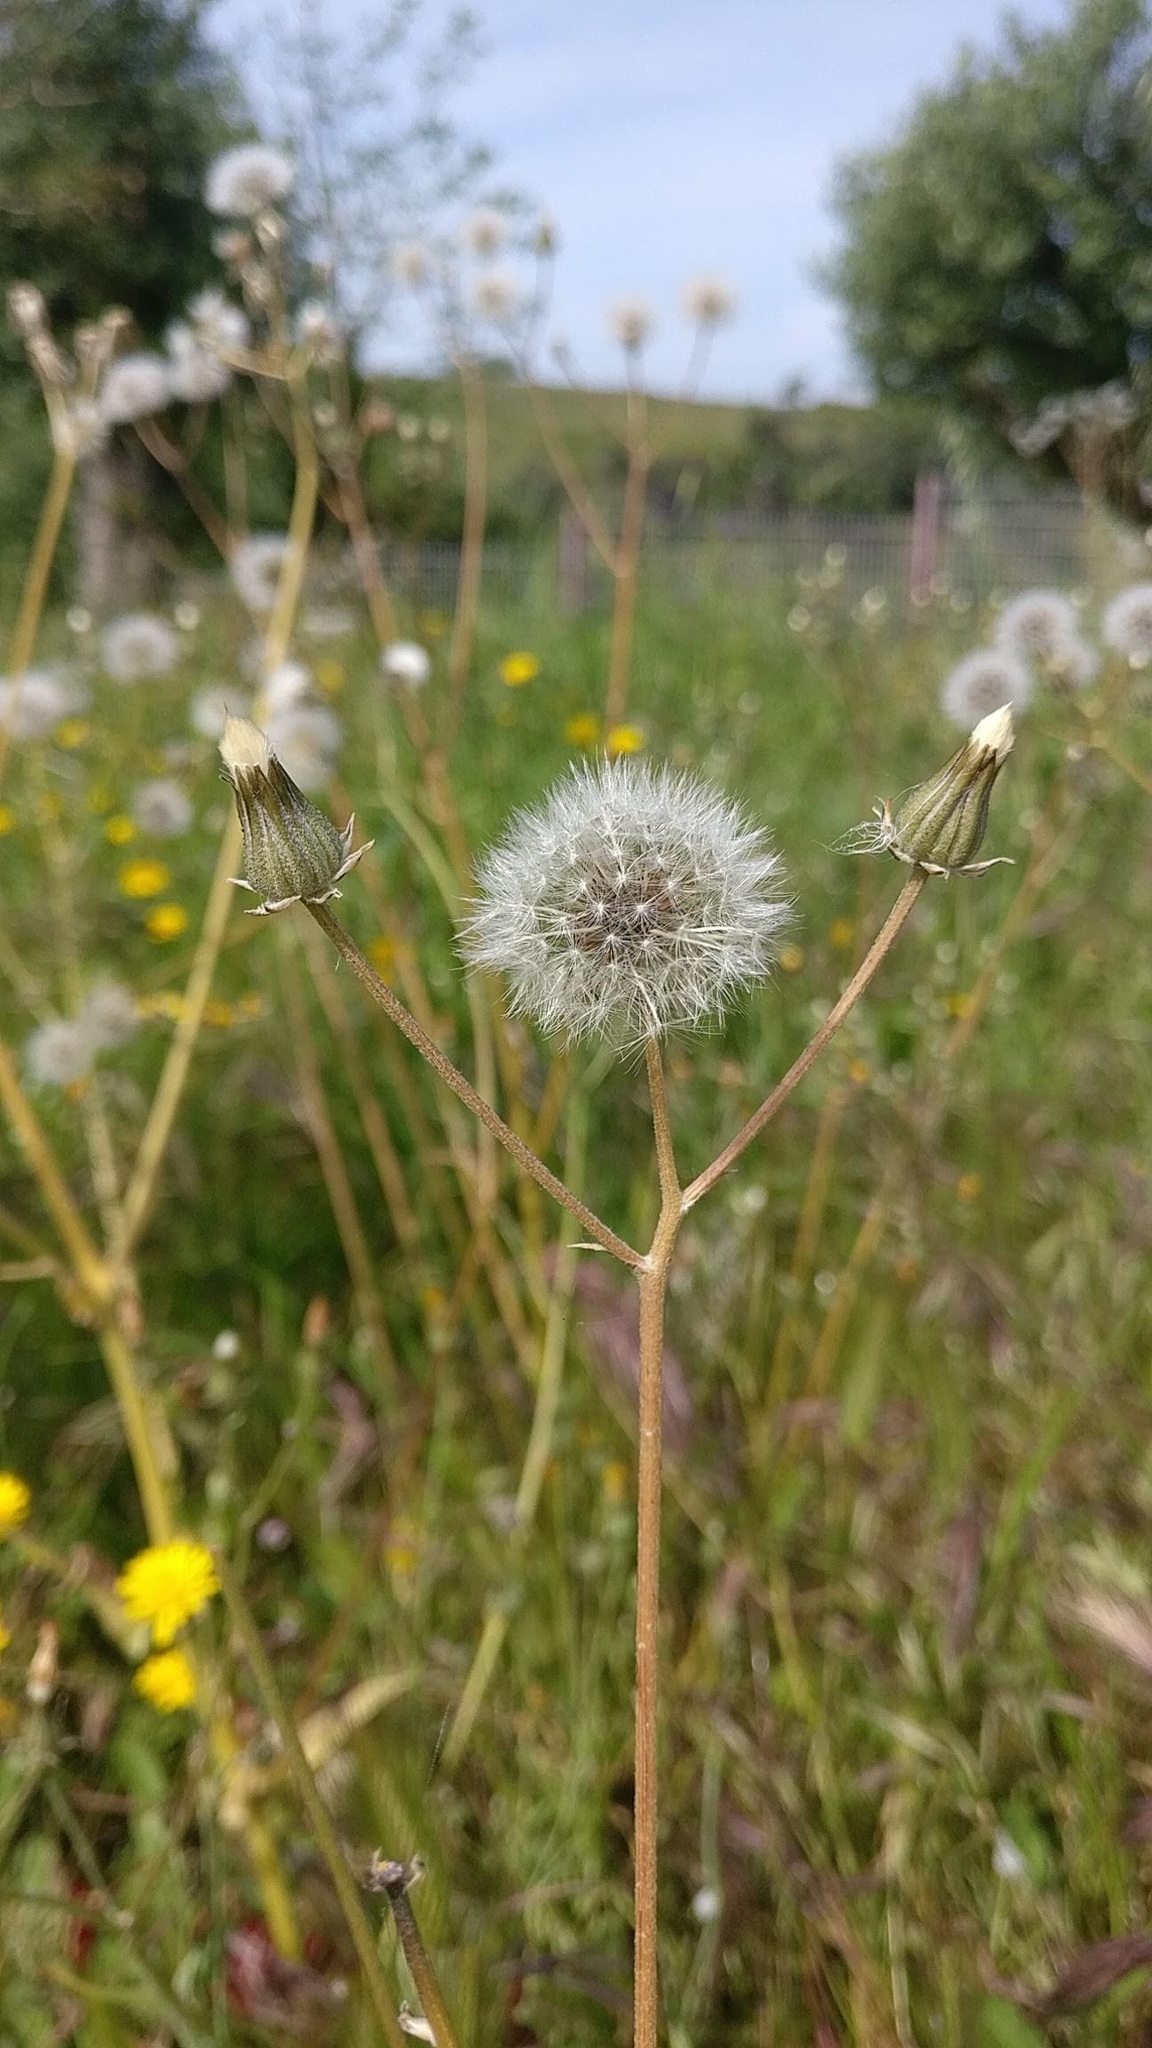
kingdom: Plantae
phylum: Tracheophyta
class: Magnoliopsida
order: Asterales
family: Asteraceae
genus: Crepis
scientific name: Crepis vesicaria
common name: Beaked hawksbeard
